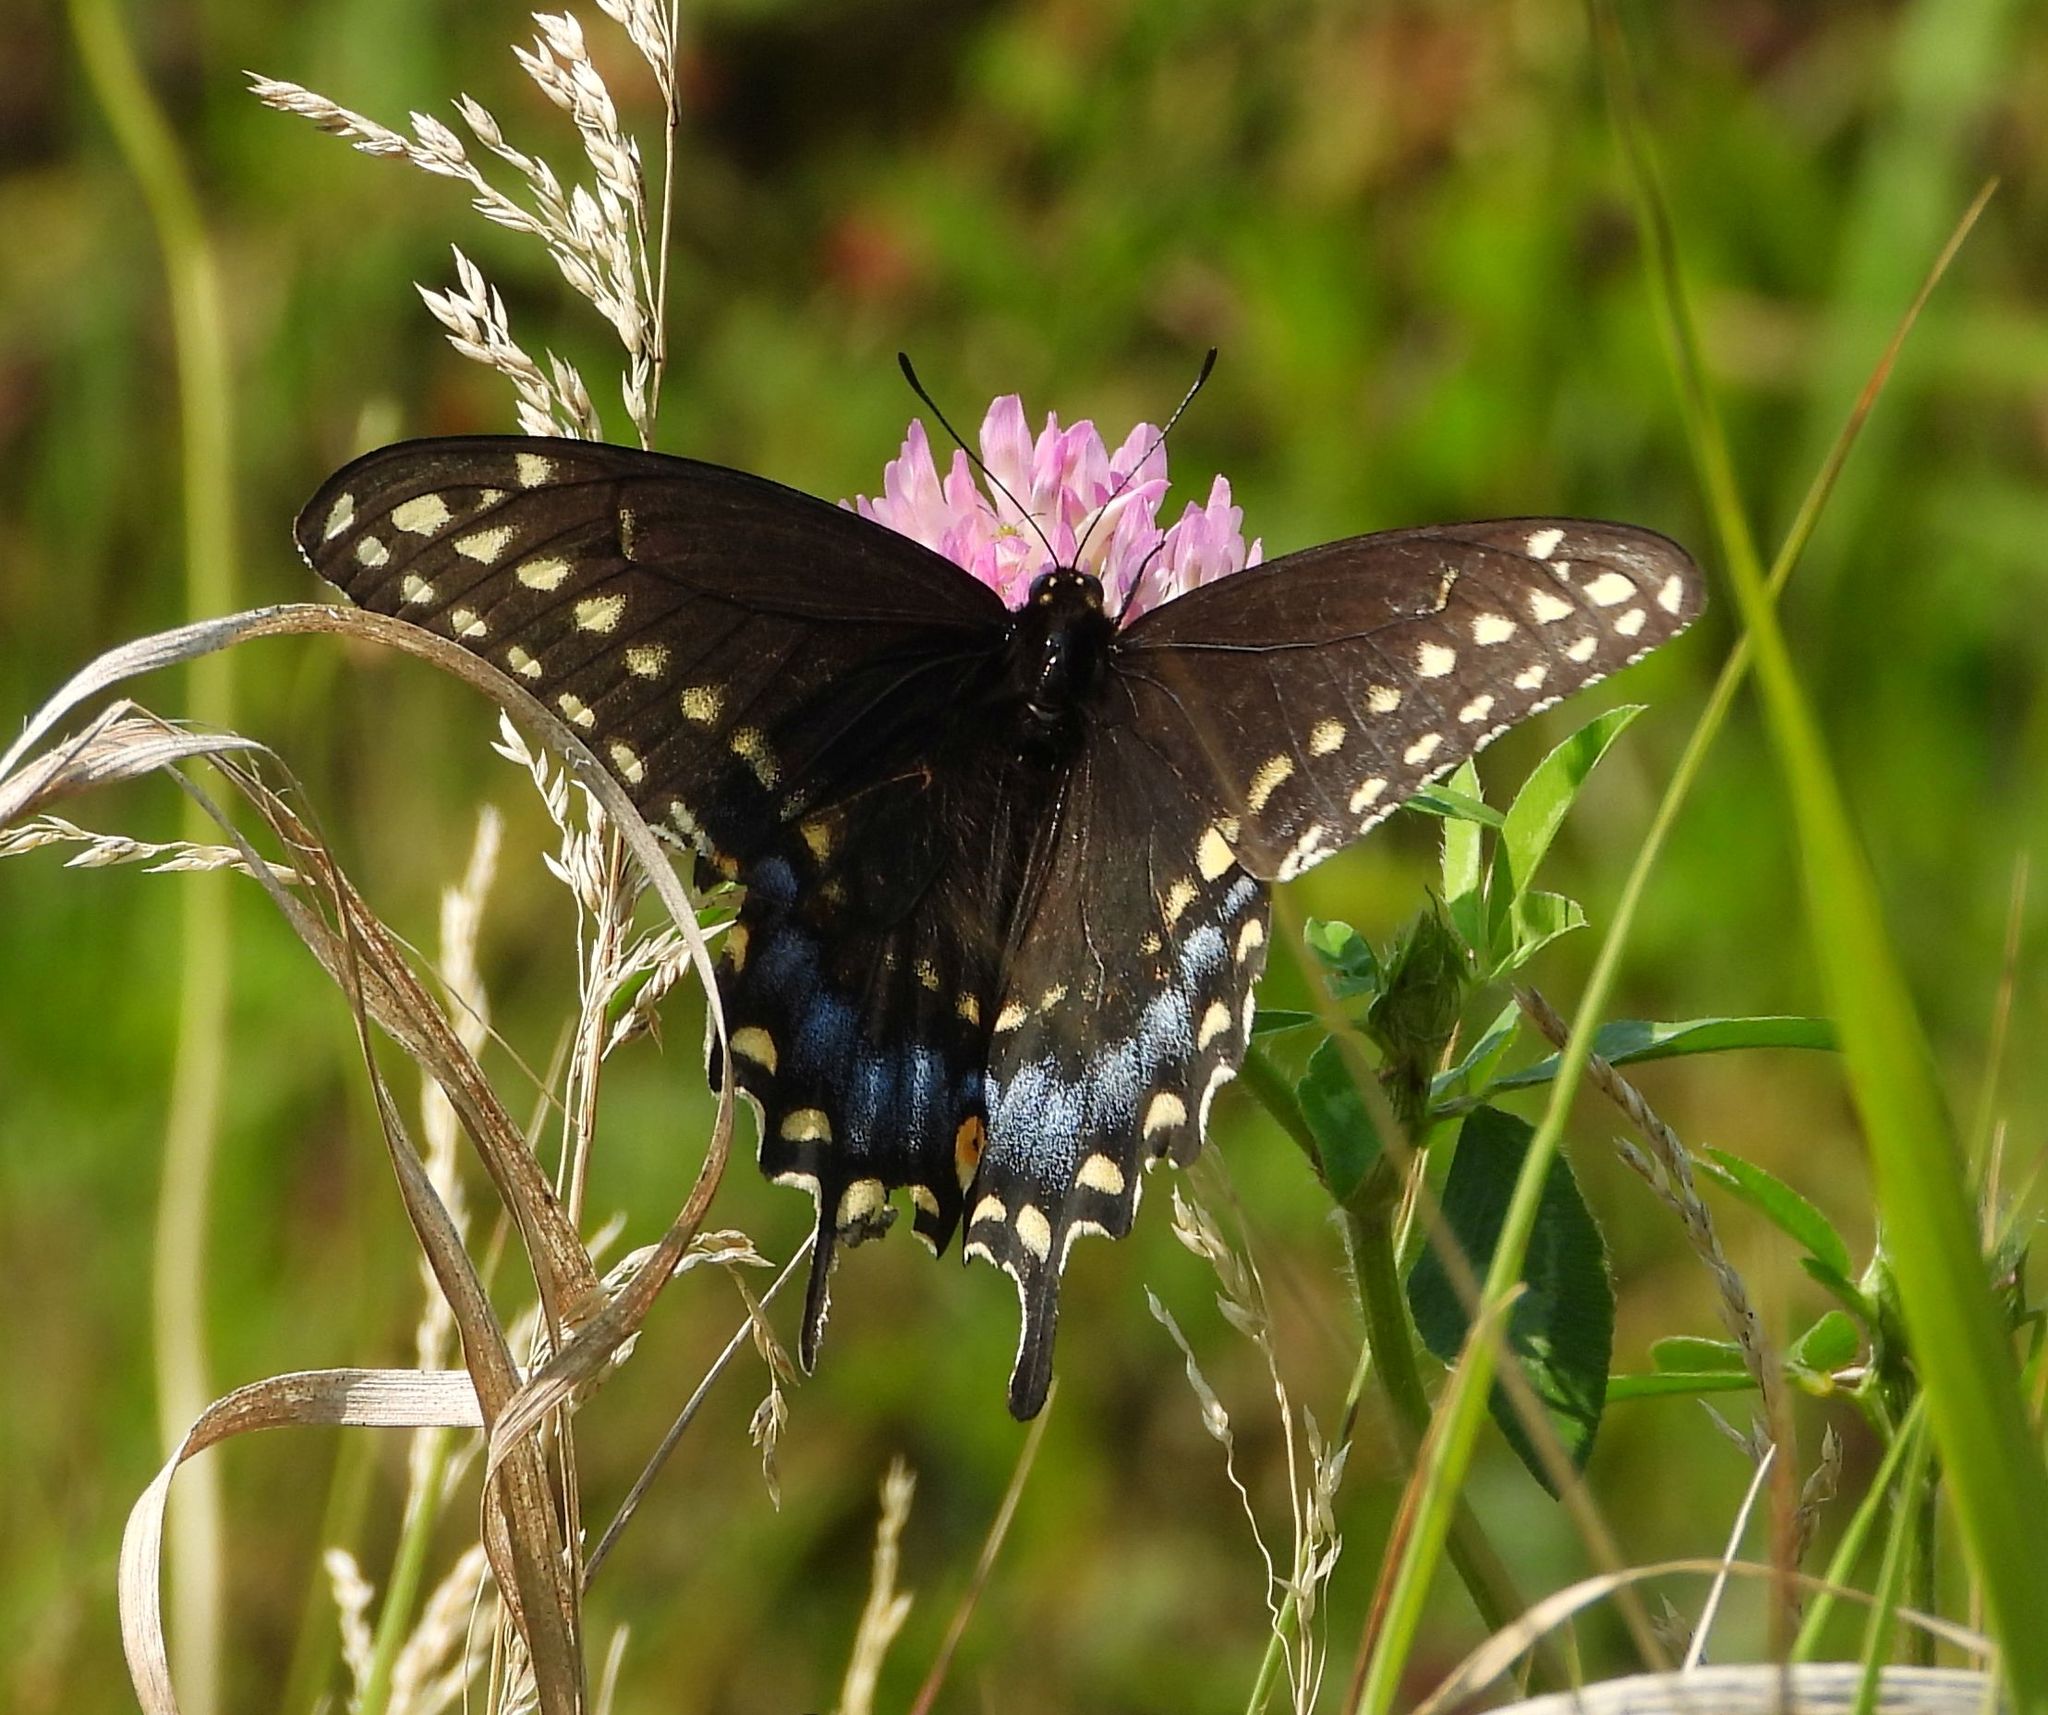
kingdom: Animalia
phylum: Arthropoda
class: Insecta
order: Lepidoptera
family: Papilionidae
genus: Papilio
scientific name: Papilio polyxenes
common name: Black swallowtail
